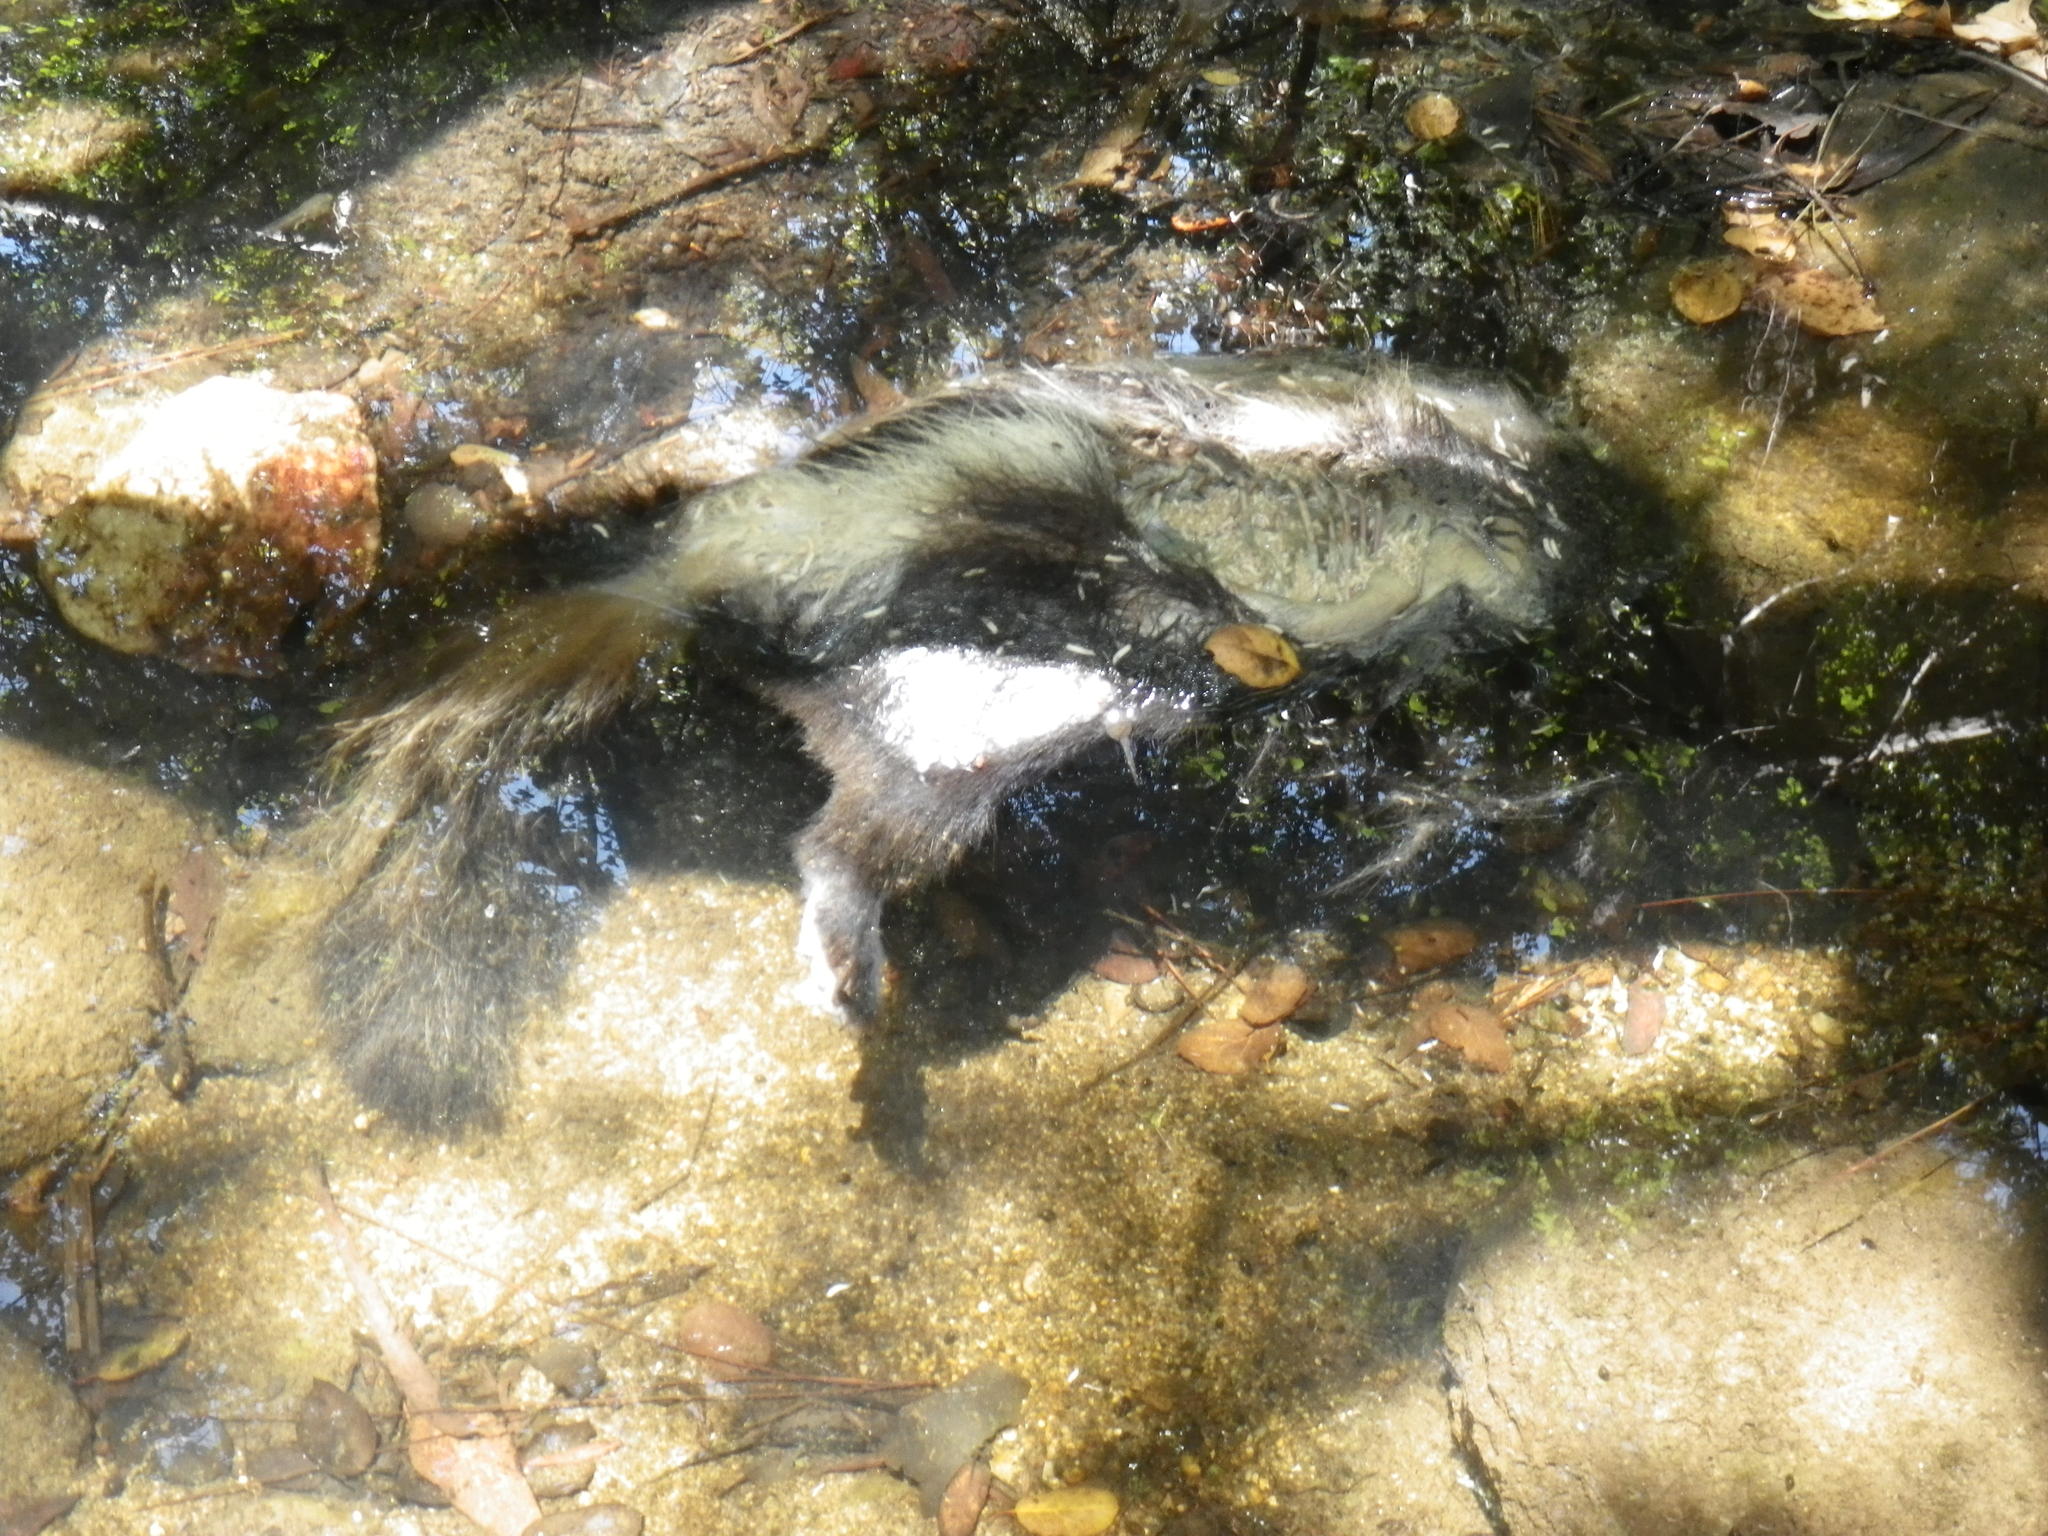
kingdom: Animalia
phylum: Chordata
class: Mammalia
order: Carnivora
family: Mephitidae
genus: Mephitis
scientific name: Mephitis mephitis
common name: Striped skunk
